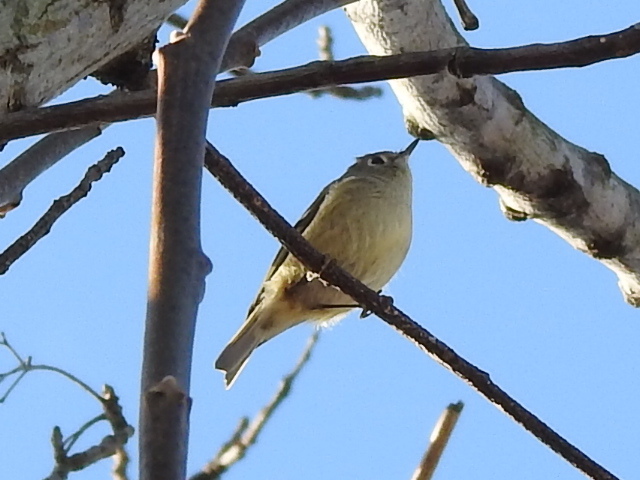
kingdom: Animalia
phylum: Chordata
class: Aves
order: Passeriformes
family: Regulidae
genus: Regulus
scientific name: Regulus calendula
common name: Ruby-crowned kinglet
